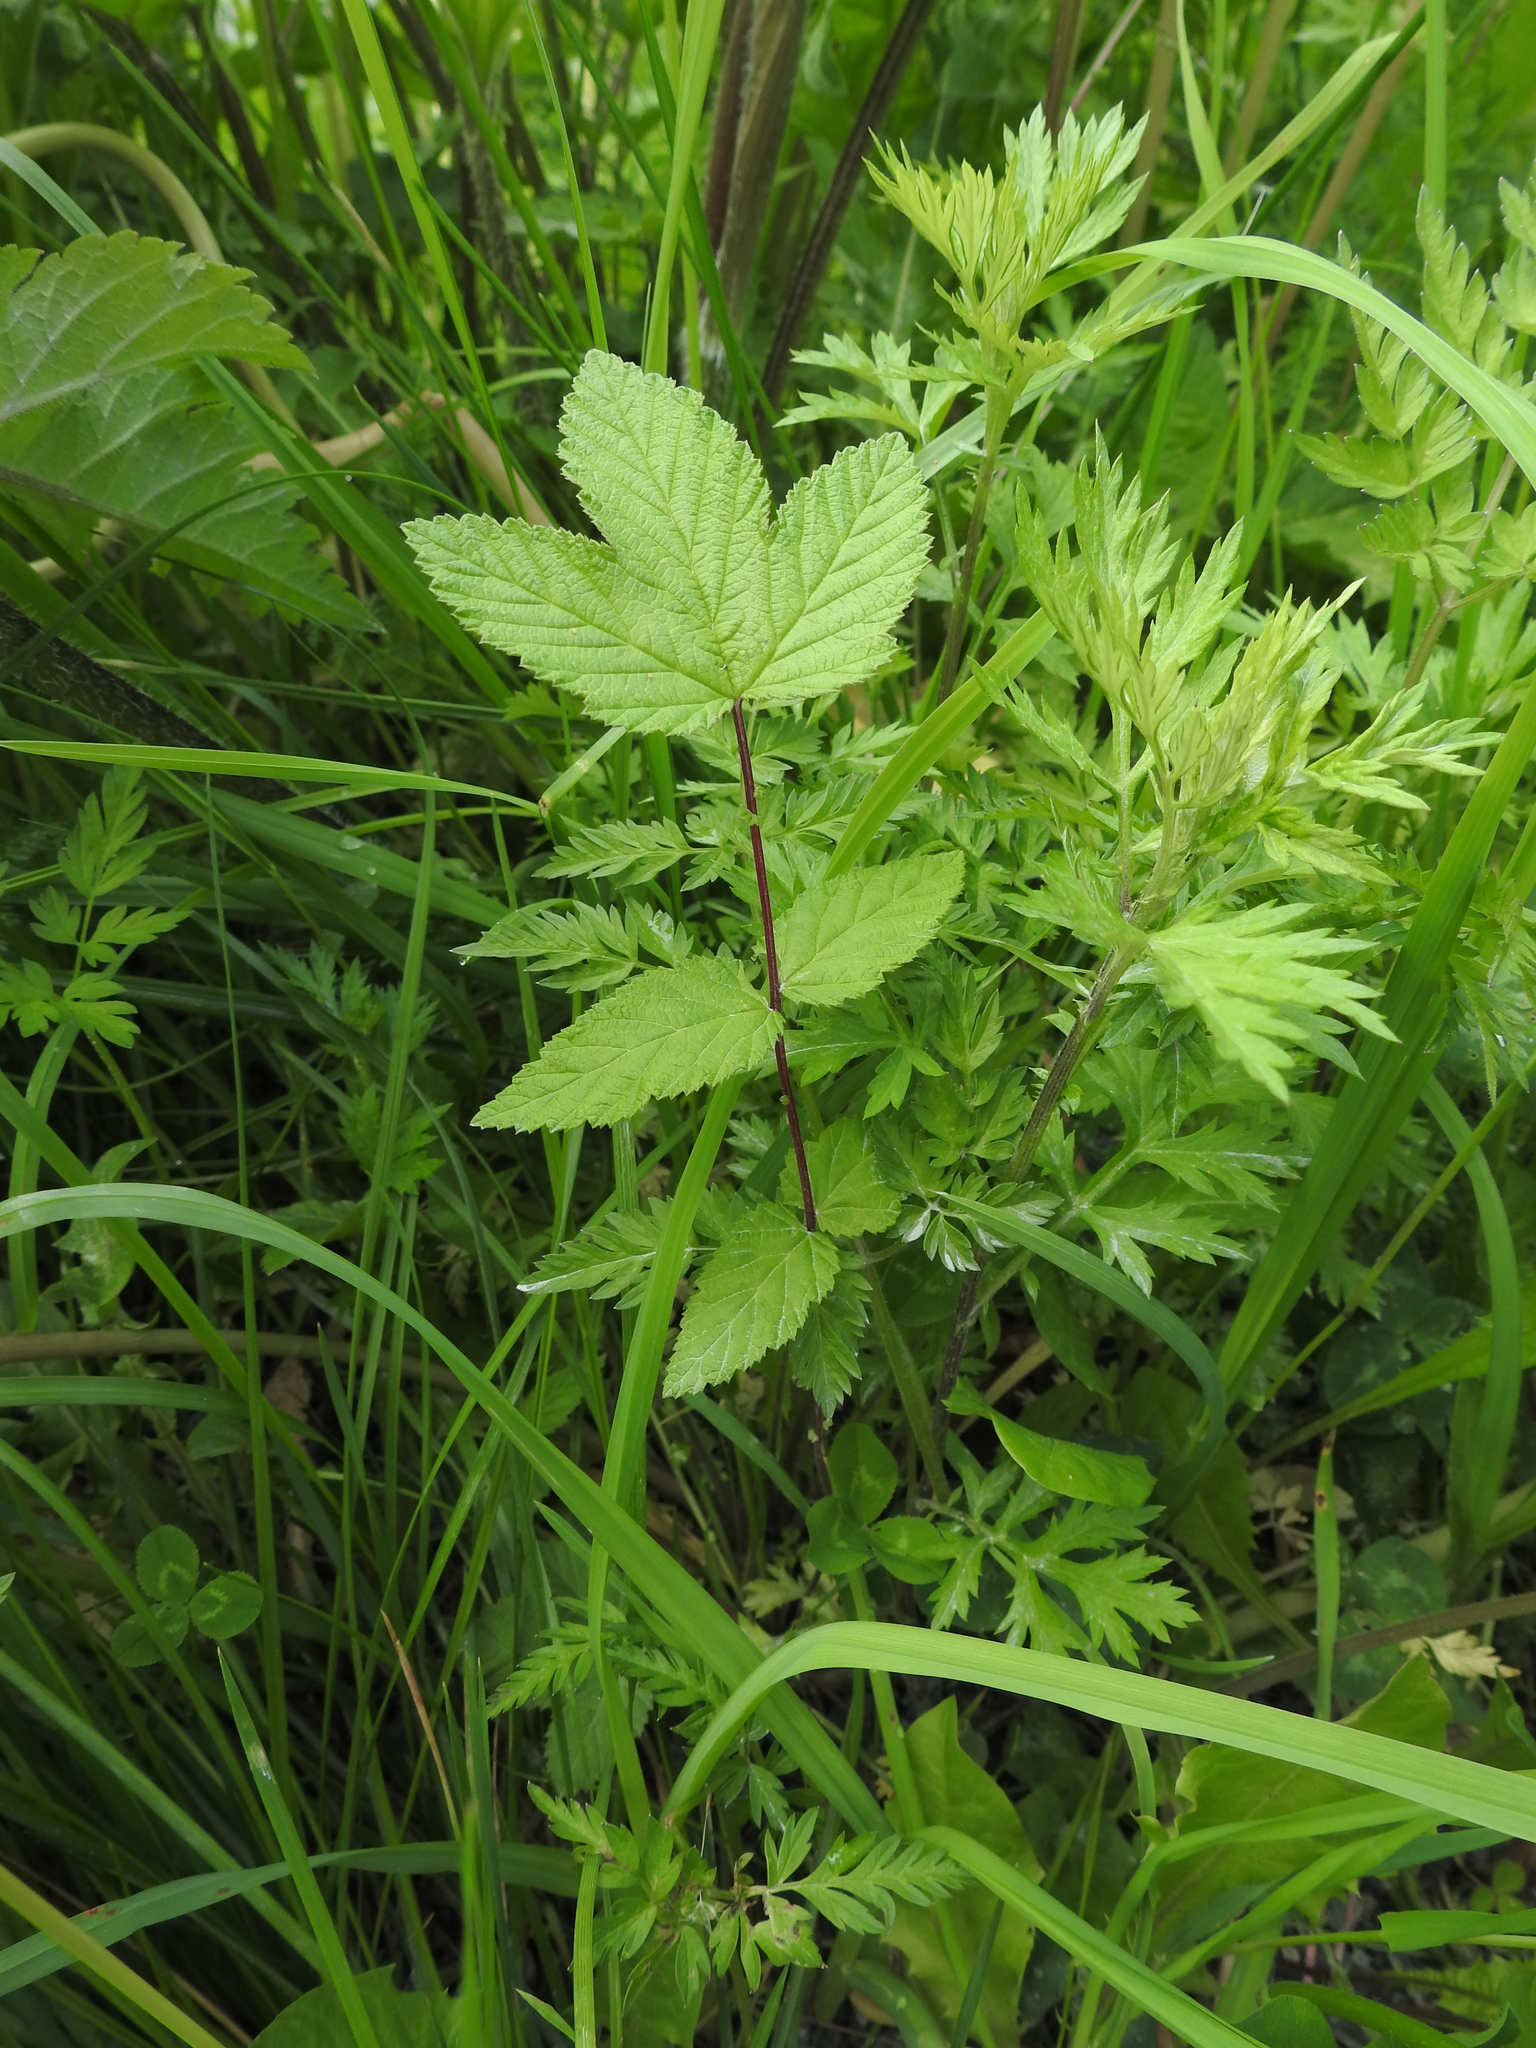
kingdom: Plantae
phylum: Tracheophyta
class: Magnoliopsida
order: Rosales
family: Rosaceae
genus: Filipendula
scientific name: Filipendula ulmaria
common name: Meadowsweet
